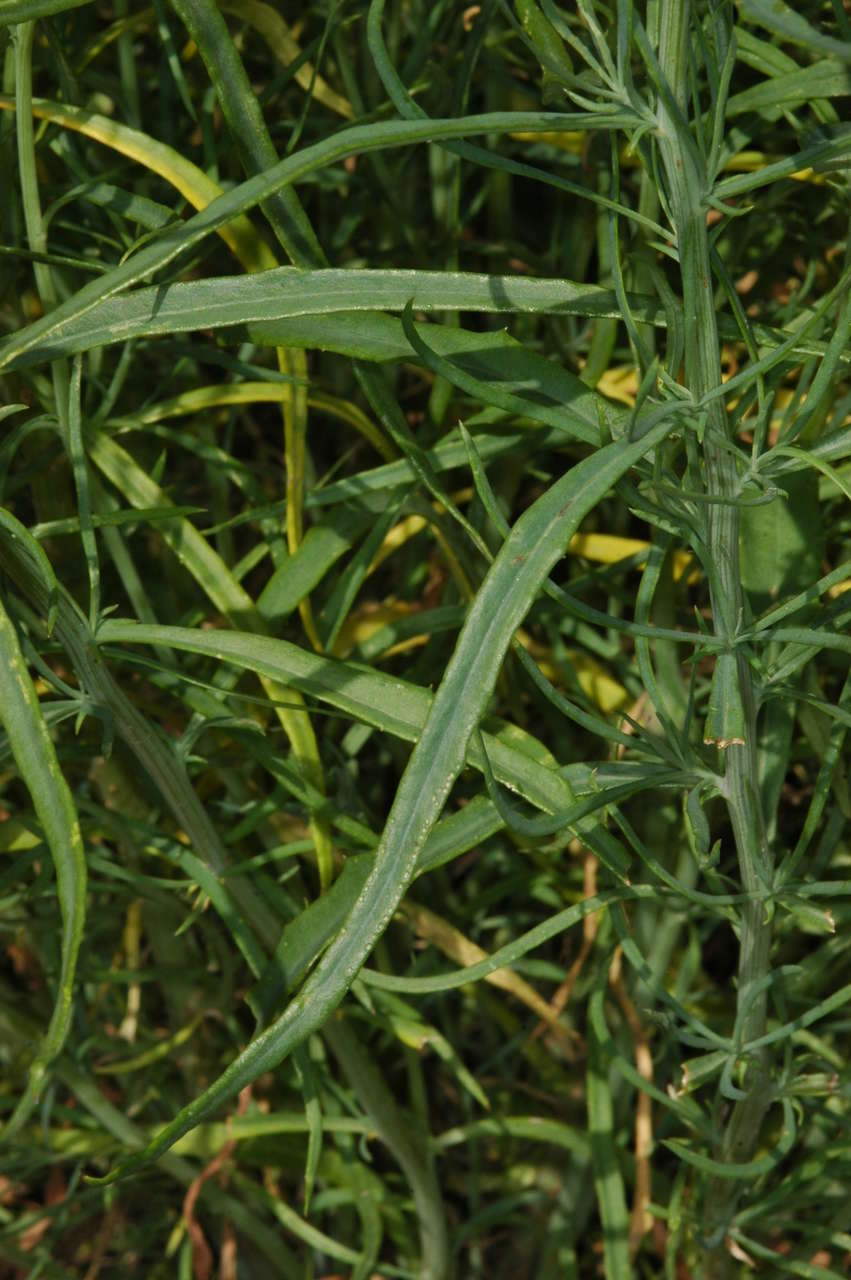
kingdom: Plantae
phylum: Tracheophyta
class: Magnoliopsida
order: Asterales
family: Asteraceae
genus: Senecio
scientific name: Senecio cunninghamii
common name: Bushy groundsel
